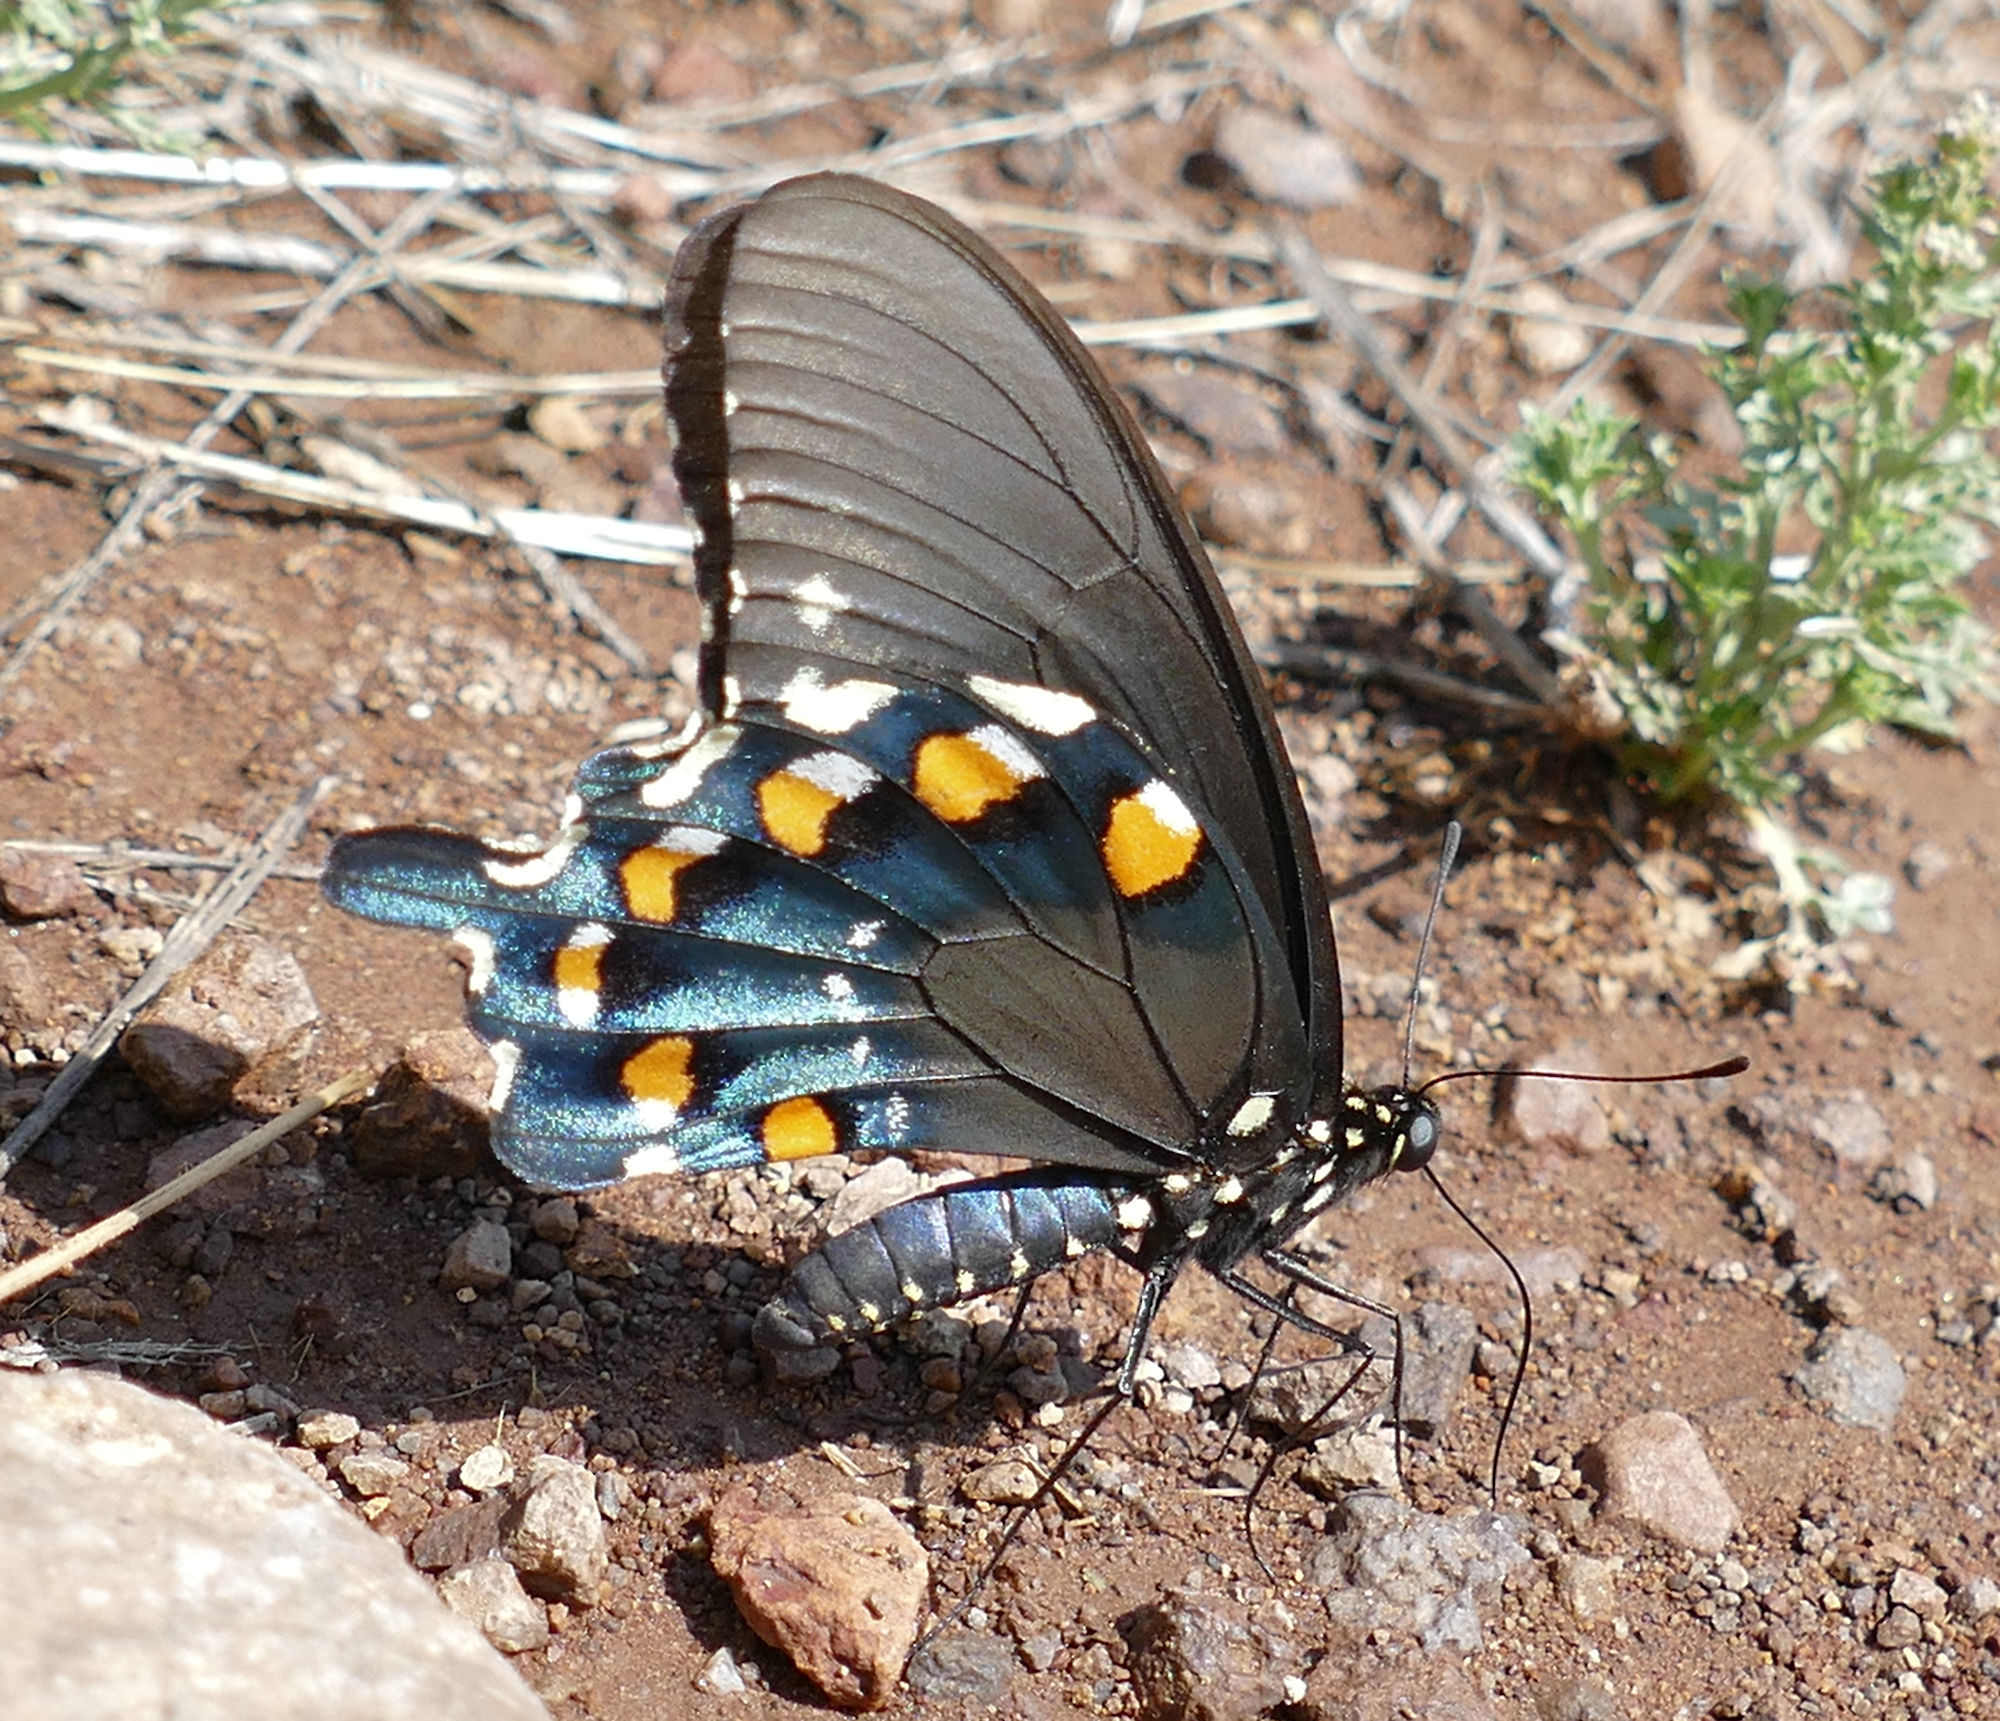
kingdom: Animalia
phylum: Arthropoda
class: Insecta
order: Lepidoptera
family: Papilionidae
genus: Battus
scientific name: Battus philenor
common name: Pipevine swallowtail
